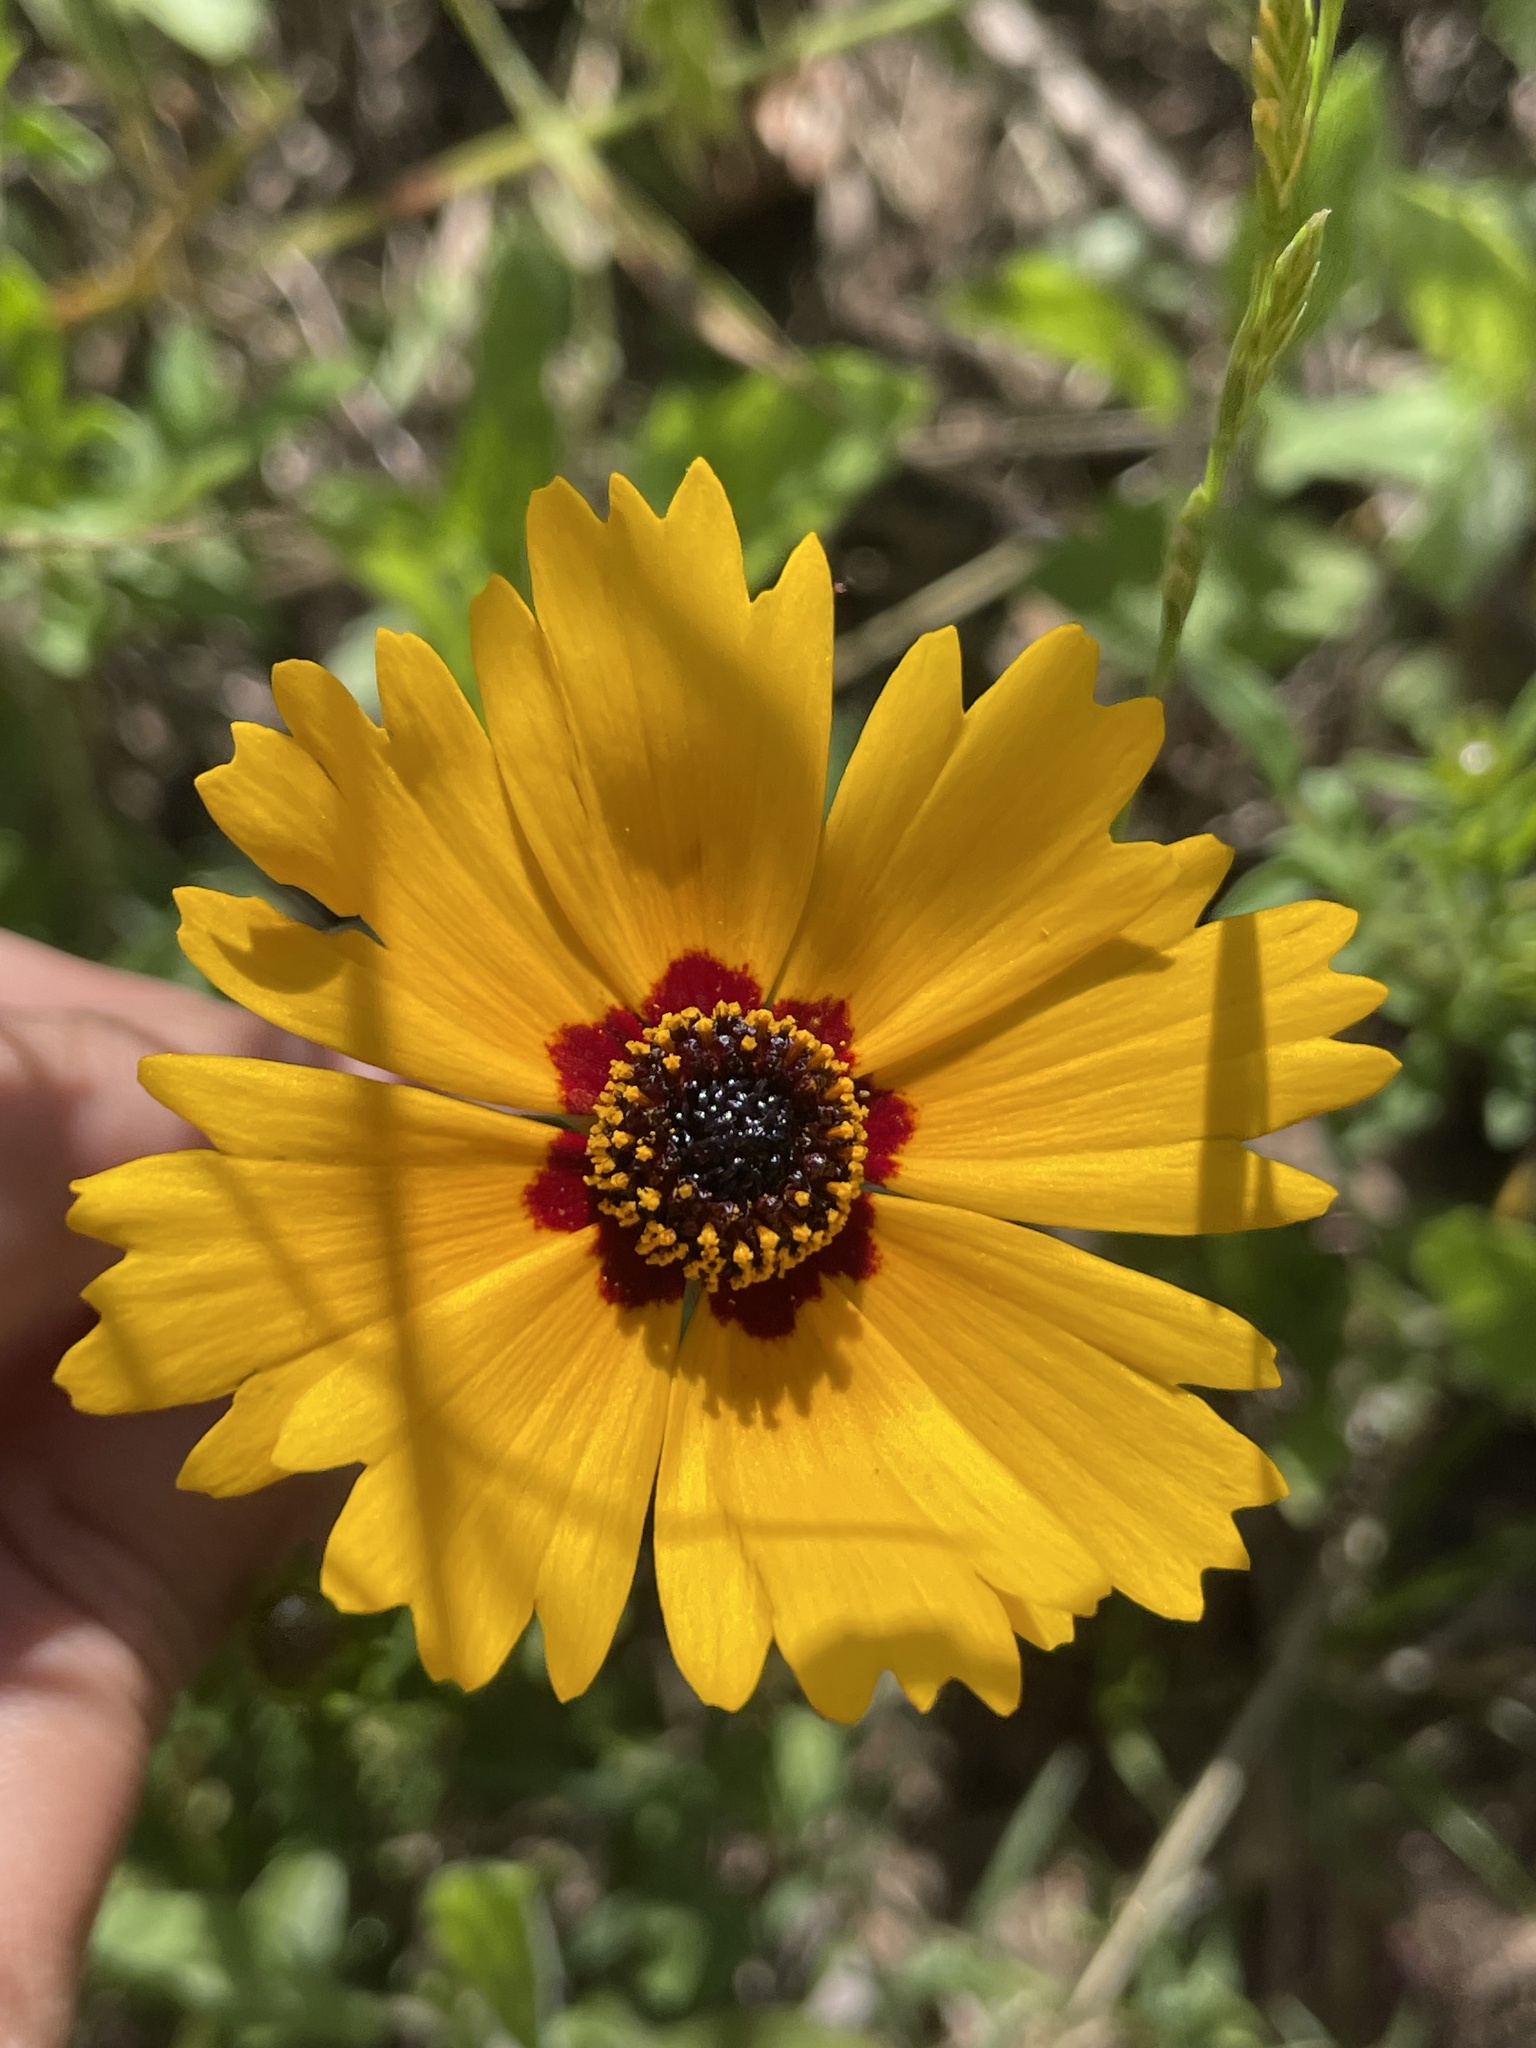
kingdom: Plantae
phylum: Tracheophyta
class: Magnoliopsida
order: Asterales
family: Asteraceae
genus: Coreopsis
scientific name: Coreopsis basalis
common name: Golden-mane coreopsis
